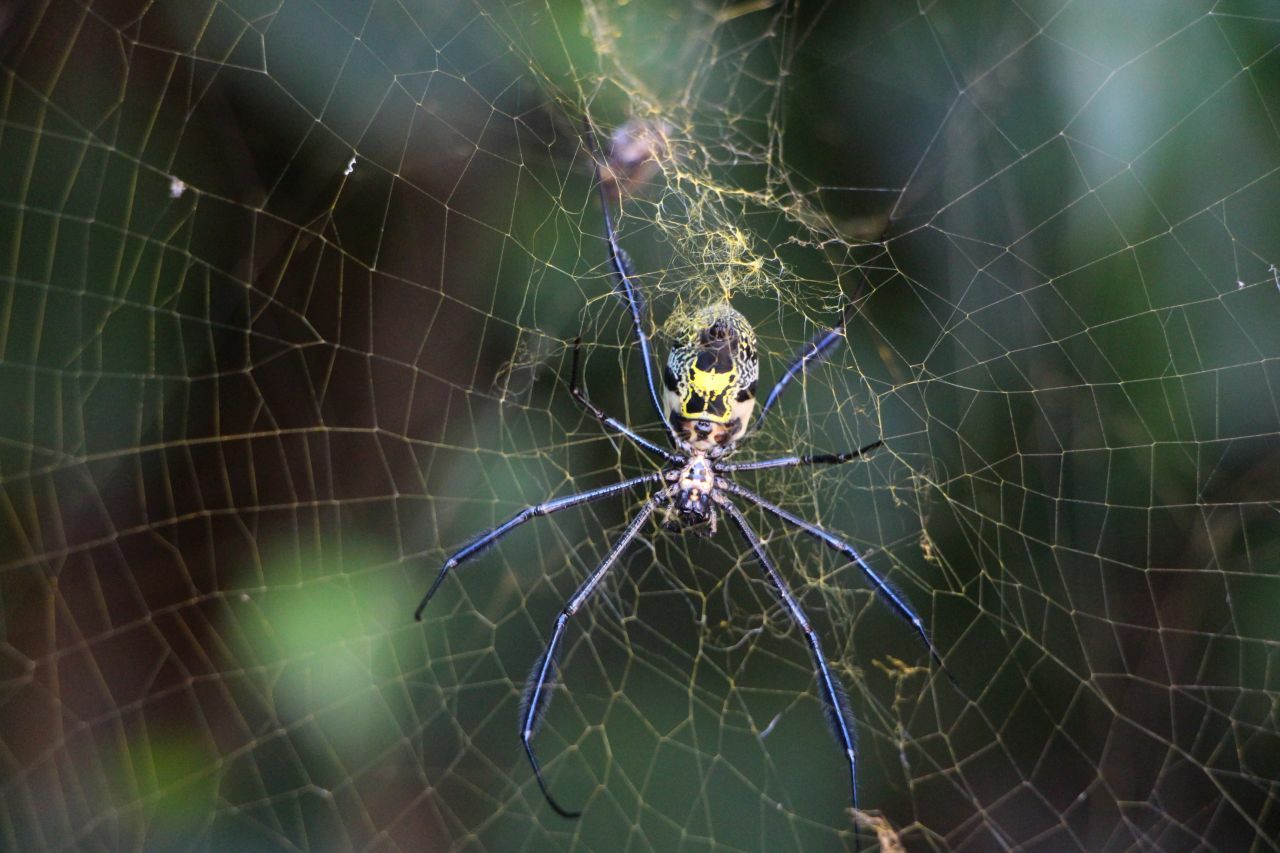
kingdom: Animalia
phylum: Arthropoda
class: Arachnida
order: Araneae
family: Araneidae
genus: Argiope
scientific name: Argiope australis
